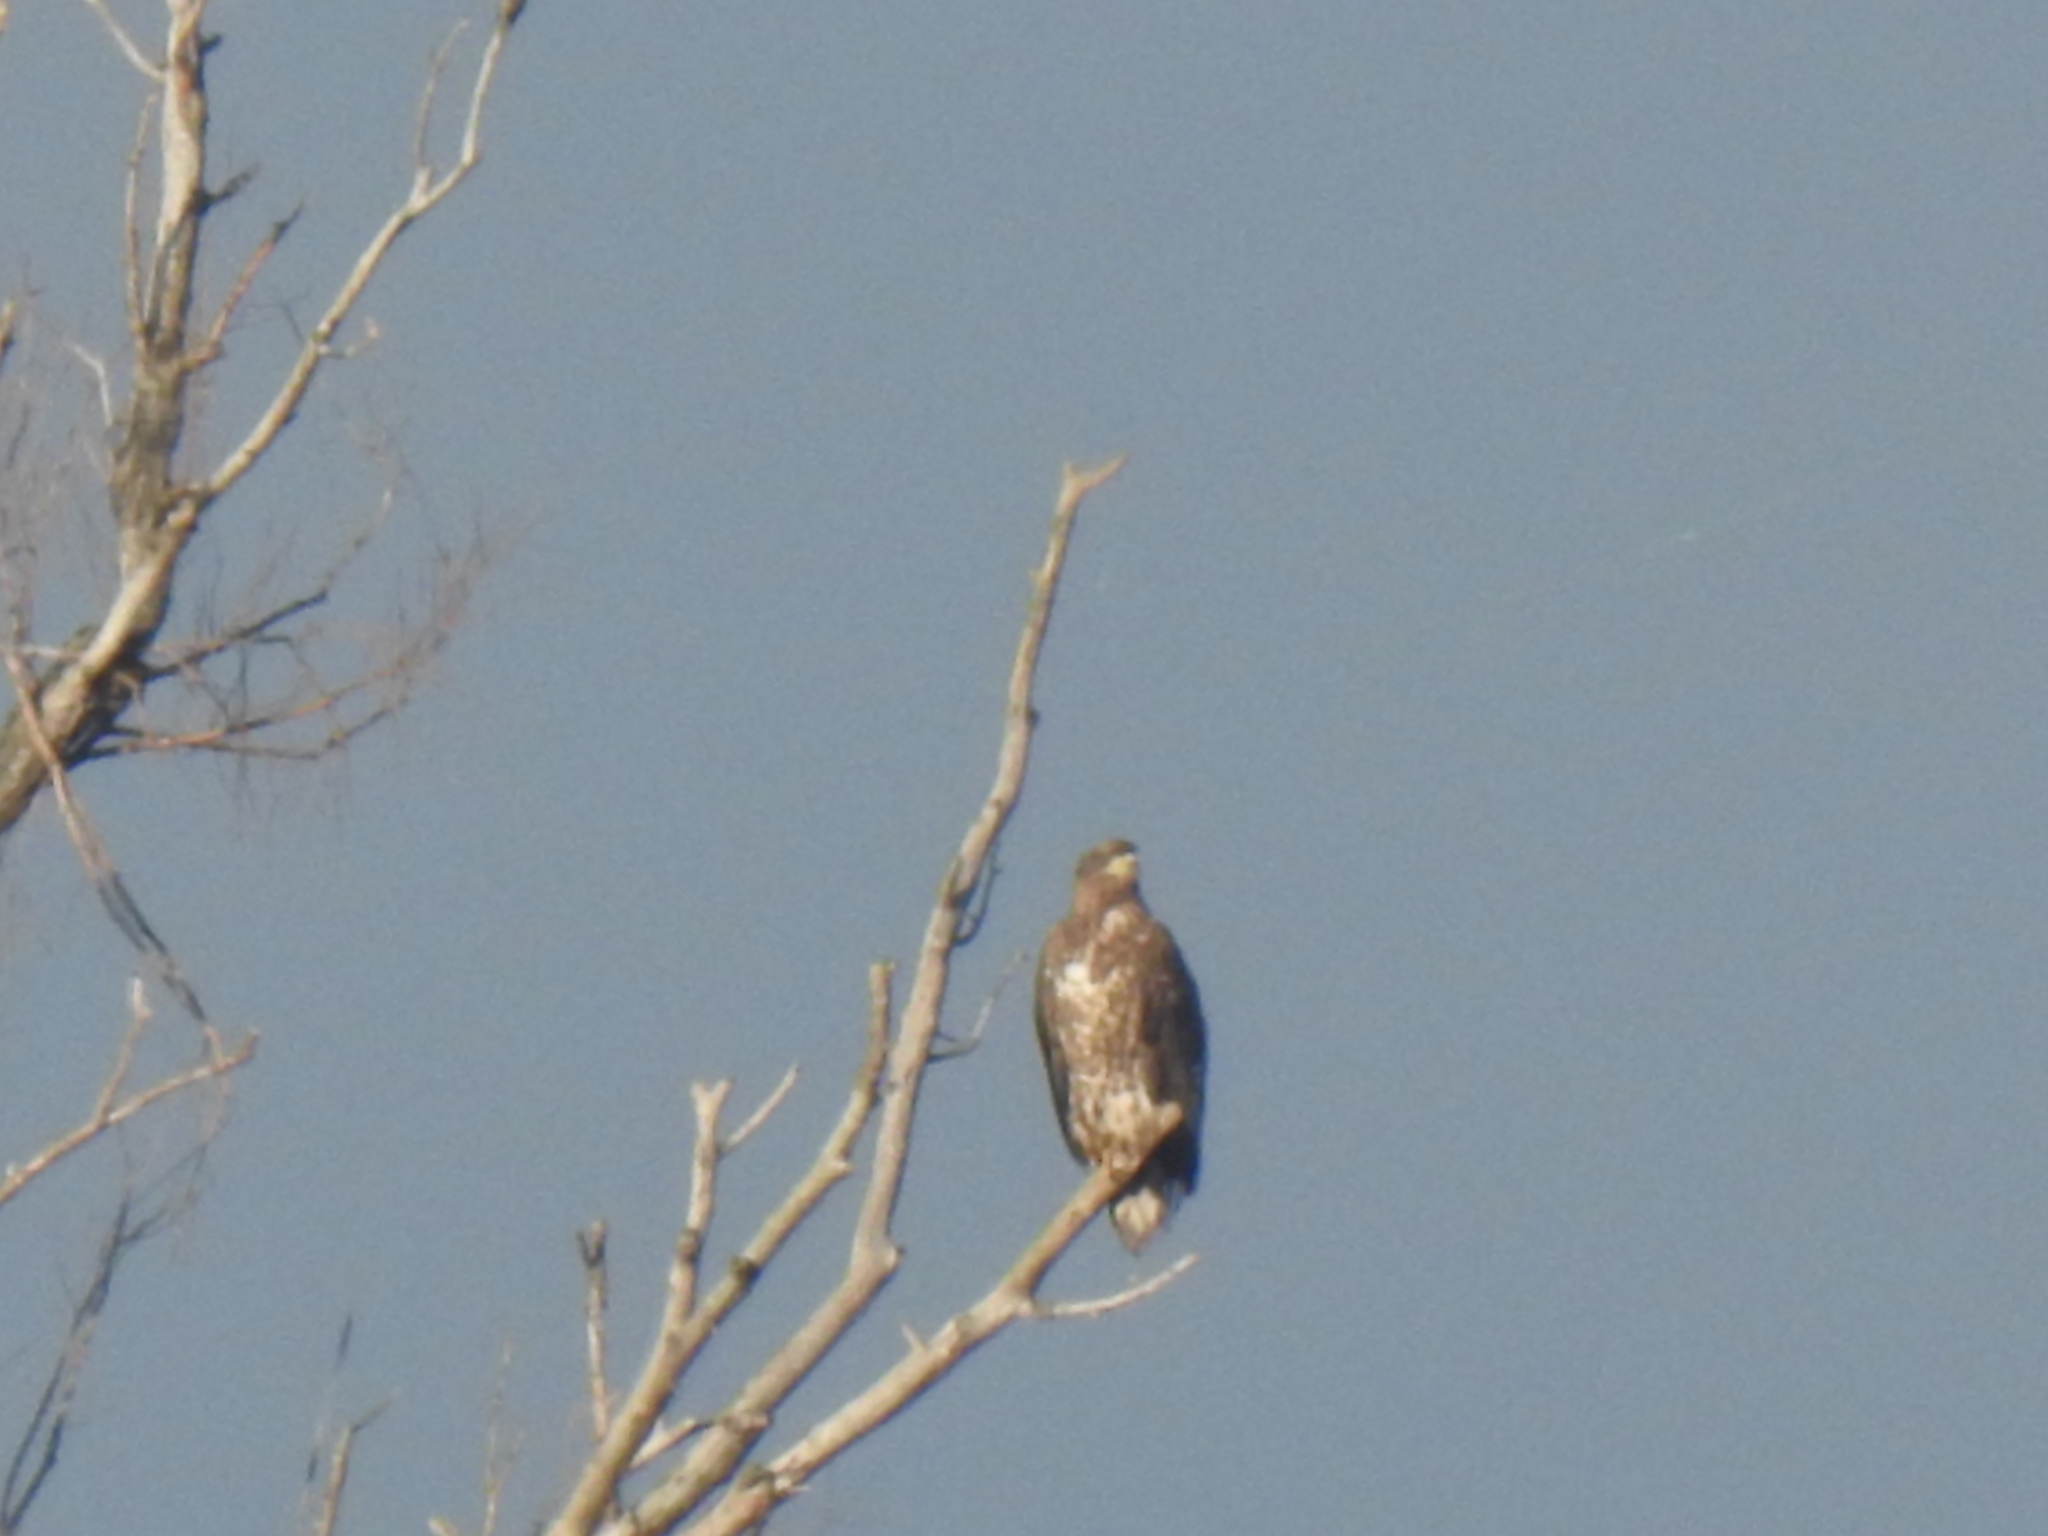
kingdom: Animalia
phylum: Chordata
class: Aves
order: Accipitriformes
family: Accipitridae
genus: Haliaeetus
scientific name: Haliaeetus albicilla
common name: White-tailed eagle
